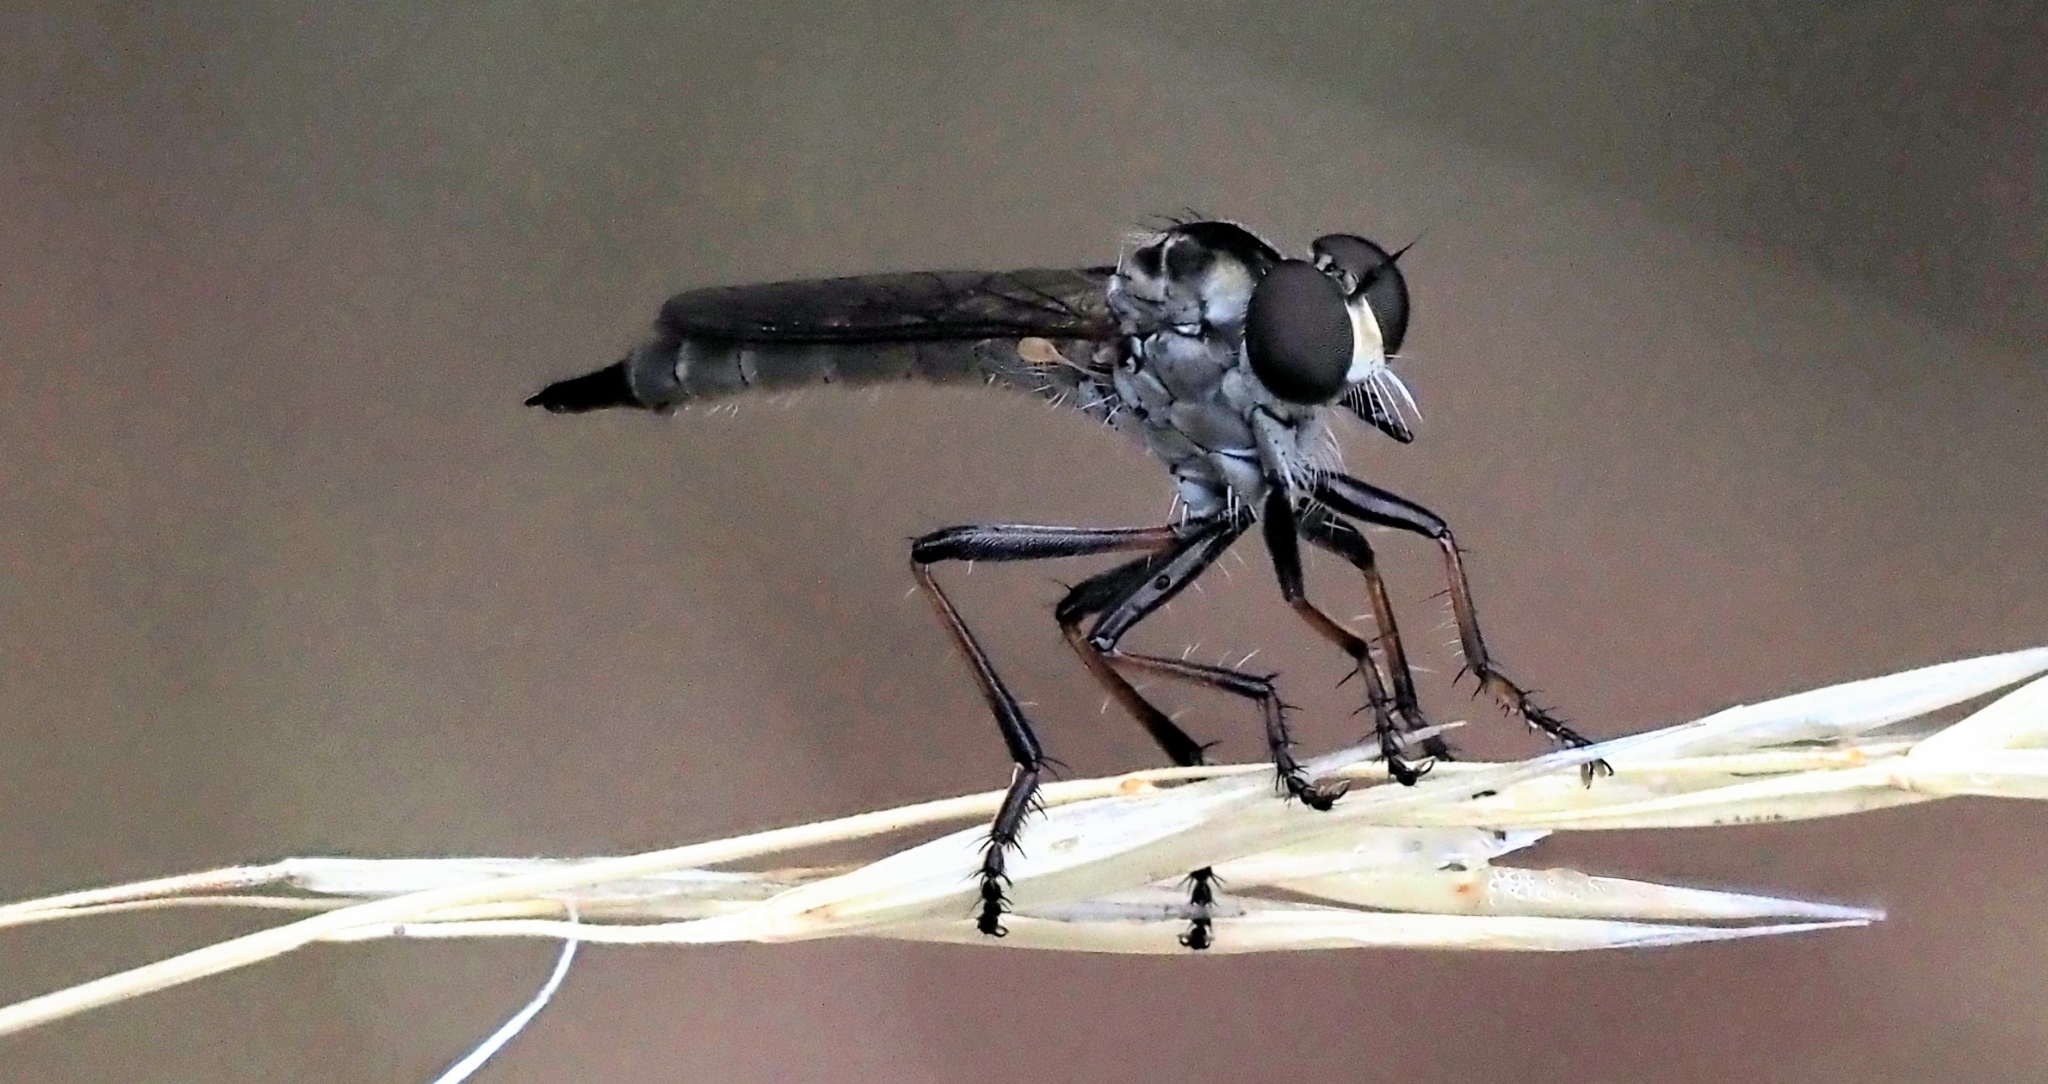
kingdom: Animalia
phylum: Arthropoda
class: Insecta
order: Diptera
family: Asilidae
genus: Cerdistus
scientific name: Cerdistus
